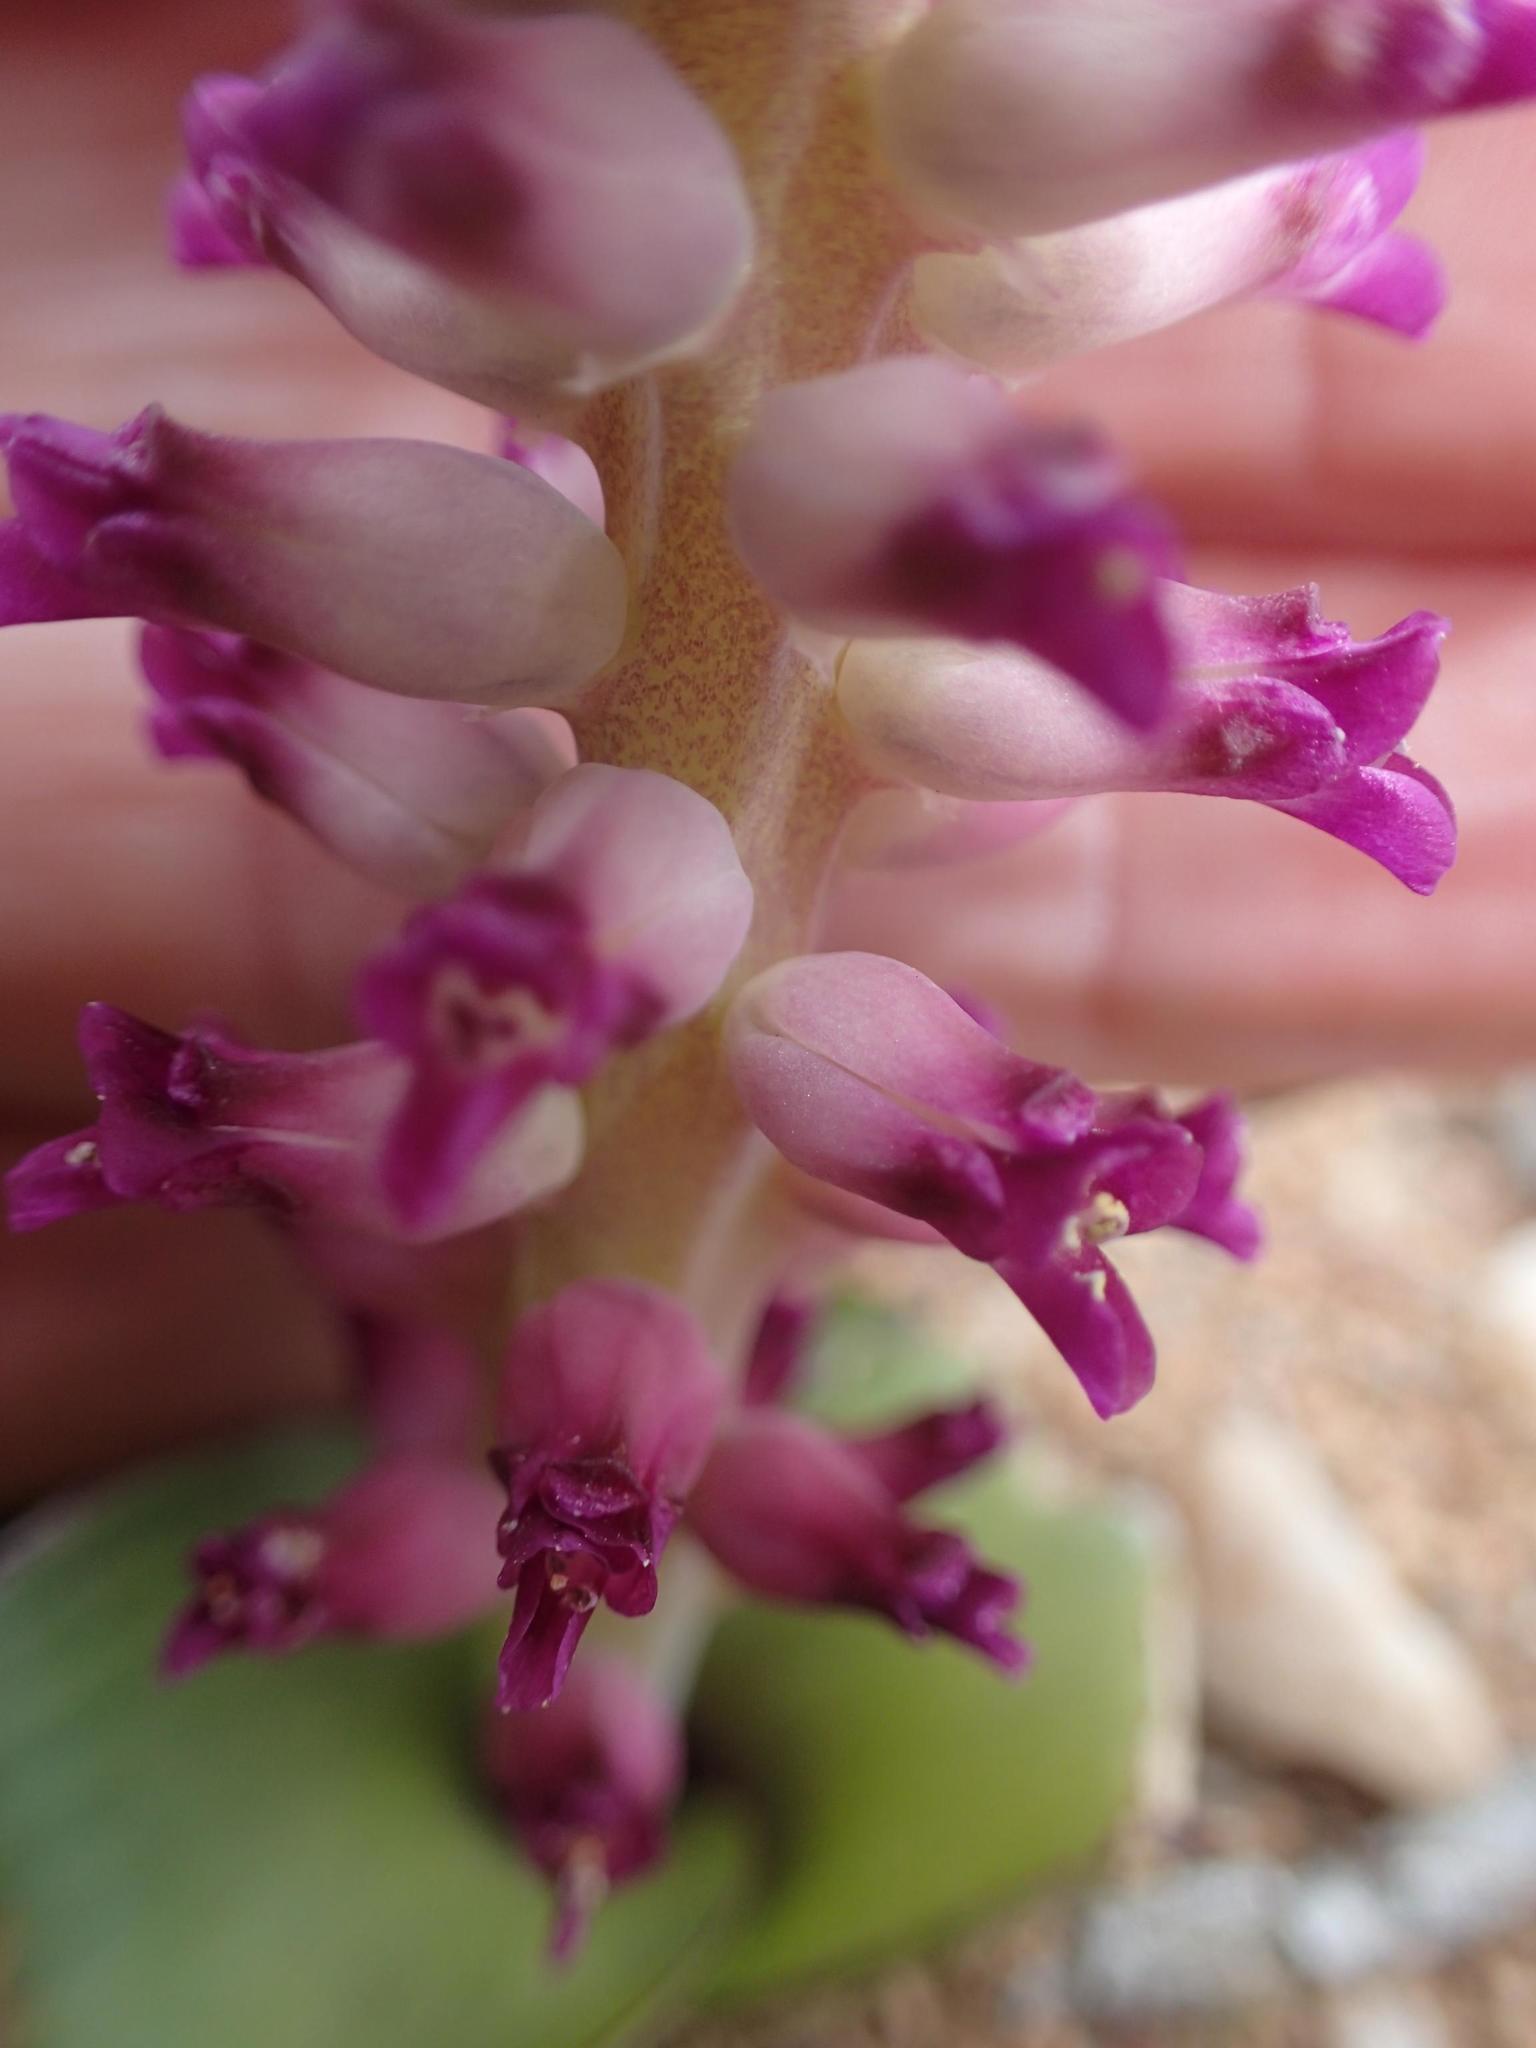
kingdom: Plantae
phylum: Tracheophyta
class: Liliopsida
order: Asparagales
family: Asparagaceae
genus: Lachenalia
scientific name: Lachenalia carnosa
